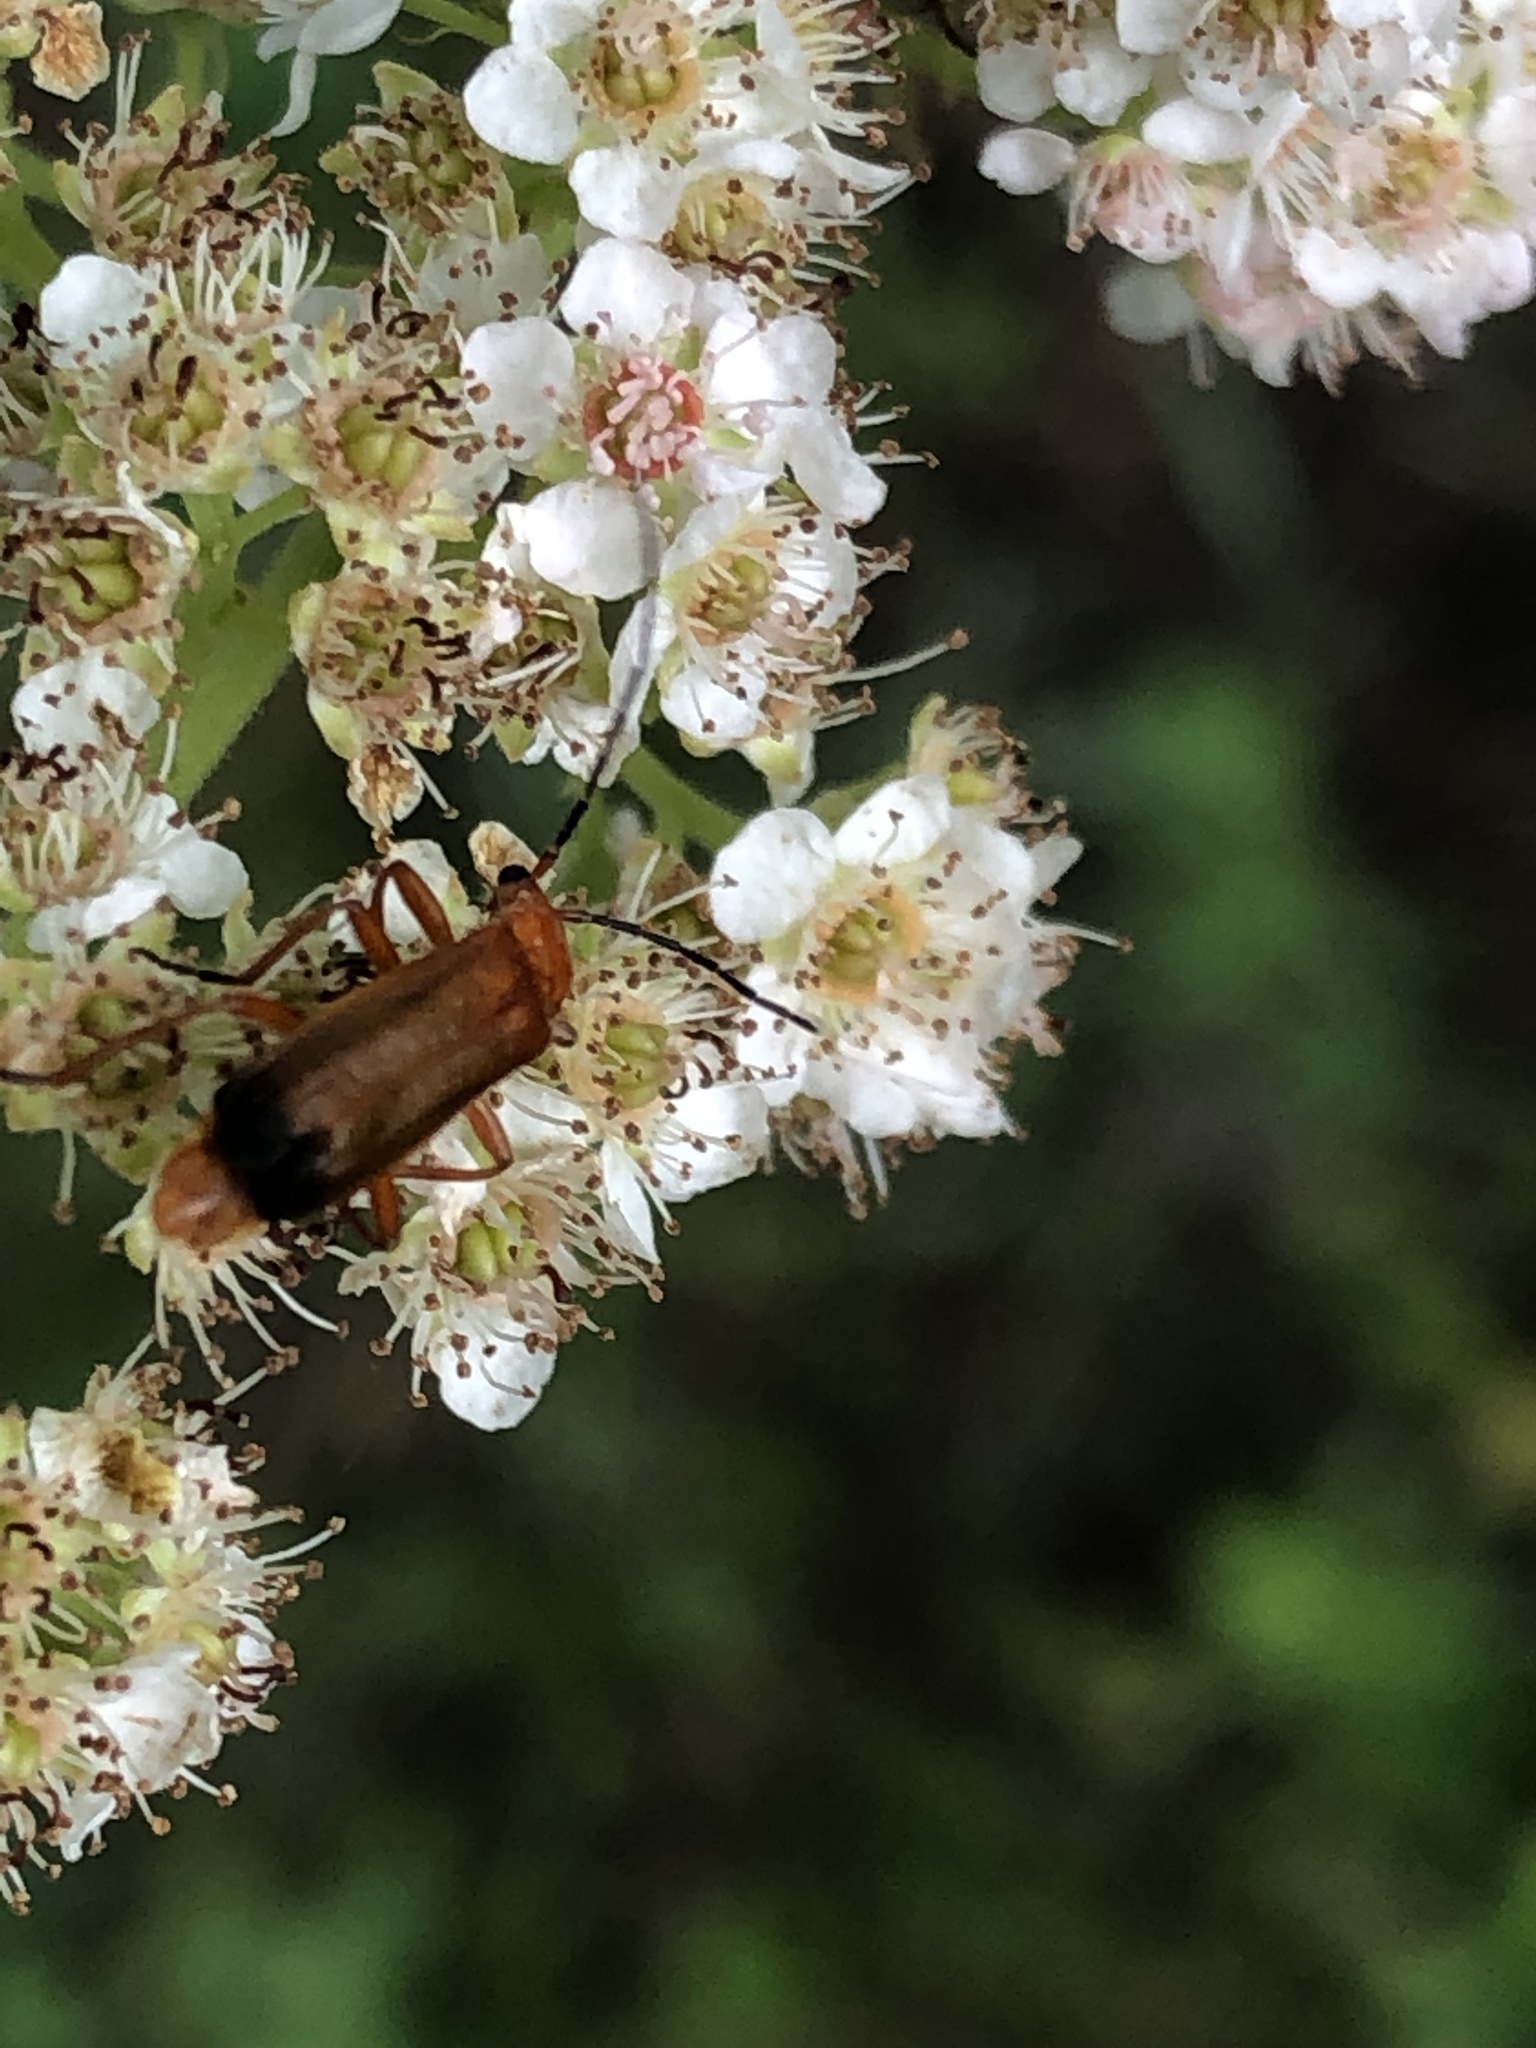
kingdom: Animalia
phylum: Arthropoda
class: Insecta
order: Coleoptera
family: Cantharidae
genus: Rhagonycha
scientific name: Rhagonycha fulva
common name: Common red soldier beetle
